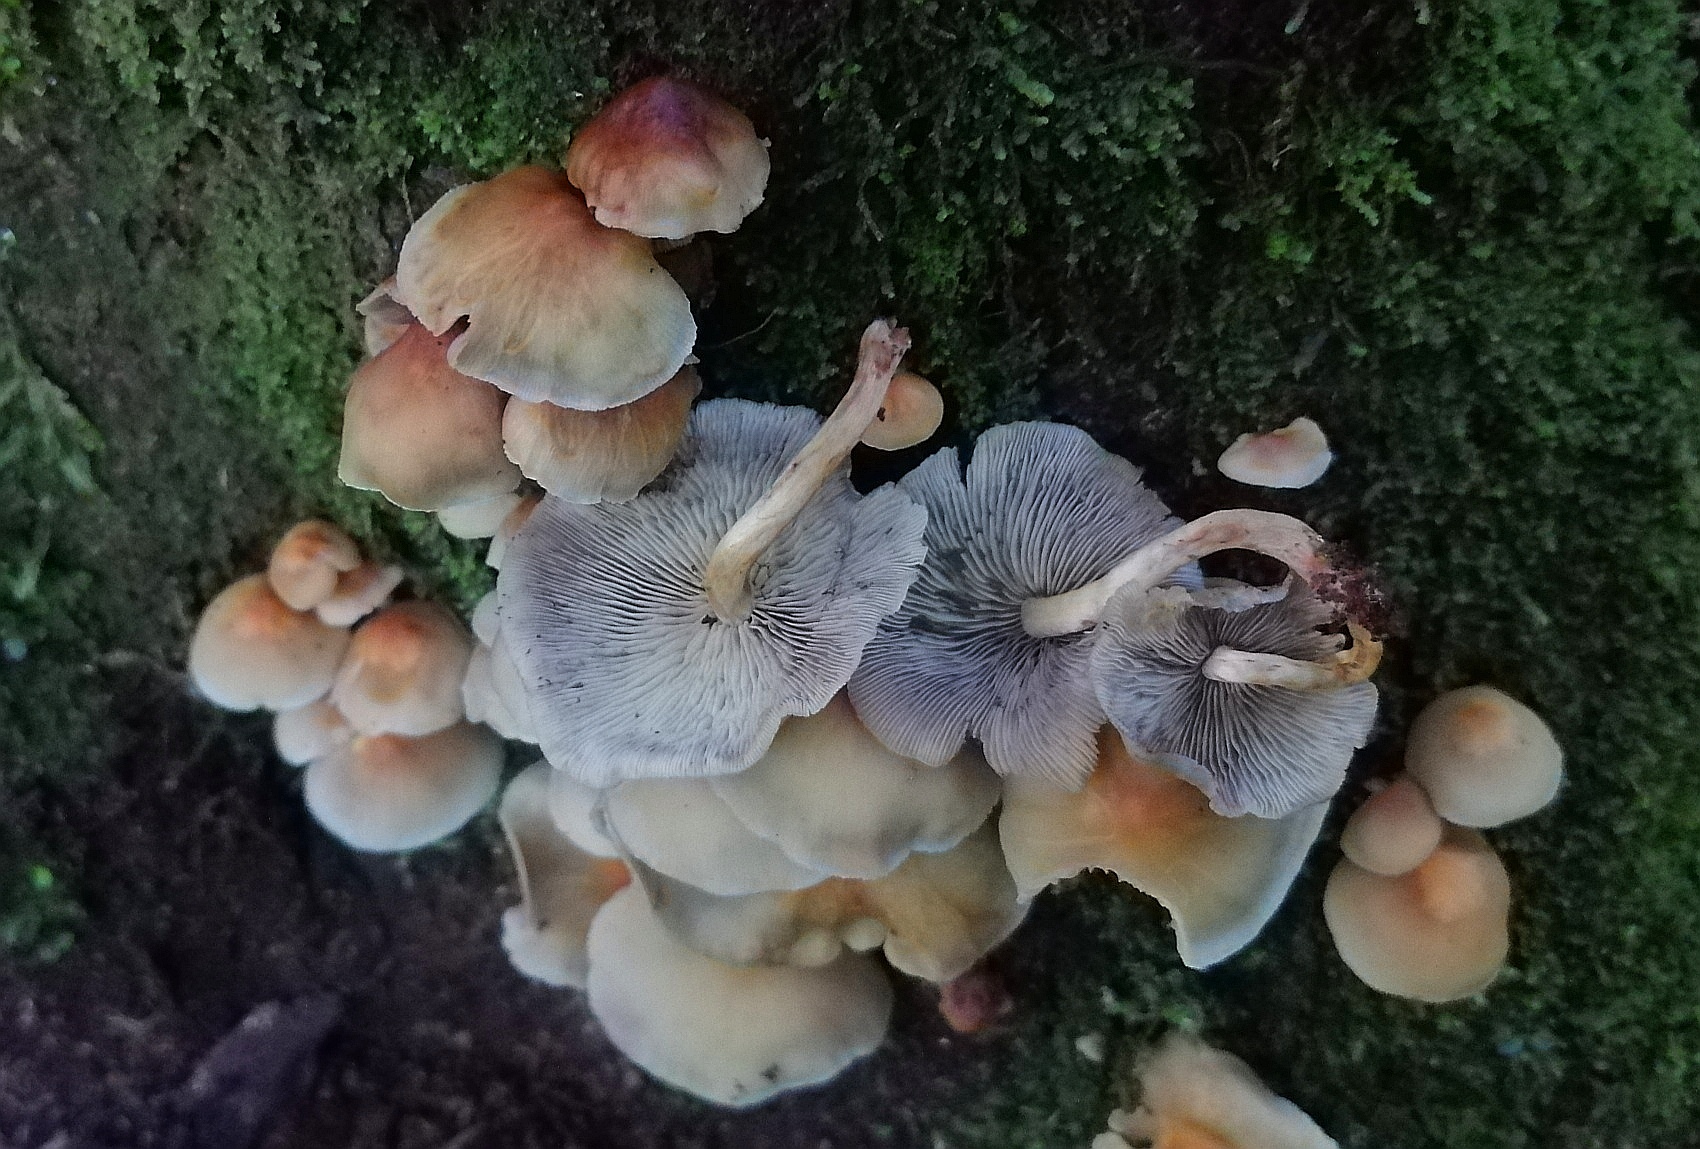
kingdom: Fungi
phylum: Basidiomycota
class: Agaricomycetes
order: Agaricales
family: Strophariaceae
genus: Hypholoma
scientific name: Hypholoma fasciculare
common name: Sulphur tuft
